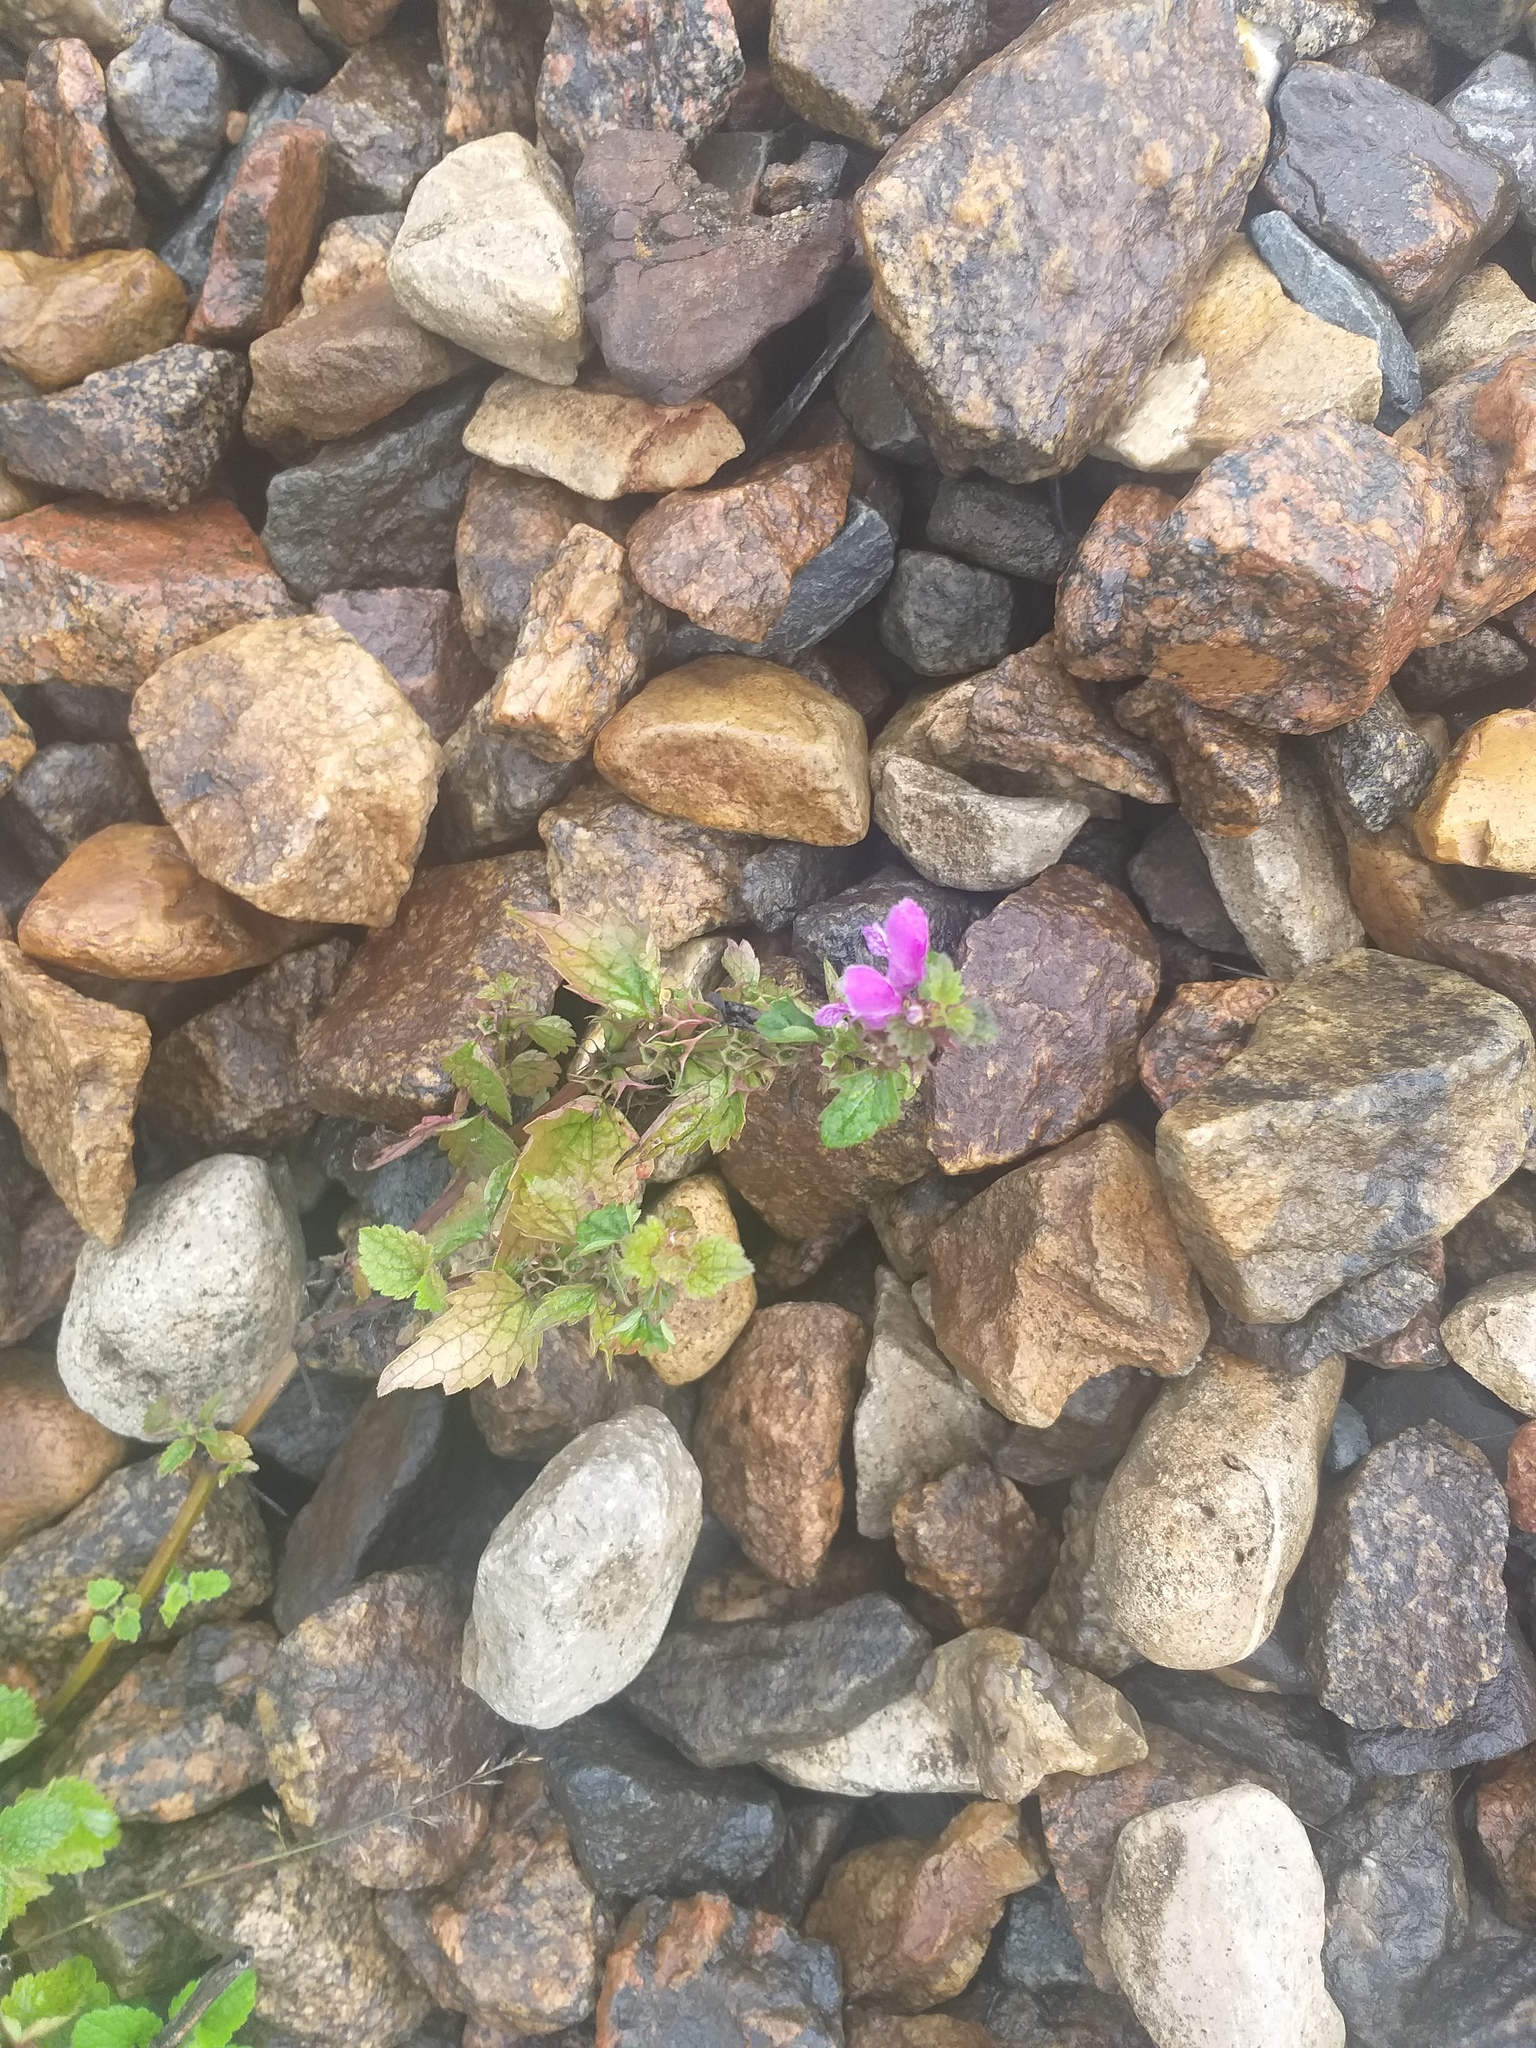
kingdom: Plantae
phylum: Tracheophyta
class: Magnoliopsida
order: Lamiales
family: Lamiaceae
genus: Lamium
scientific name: Lamium maculatum
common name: Spotted dead-nettle
